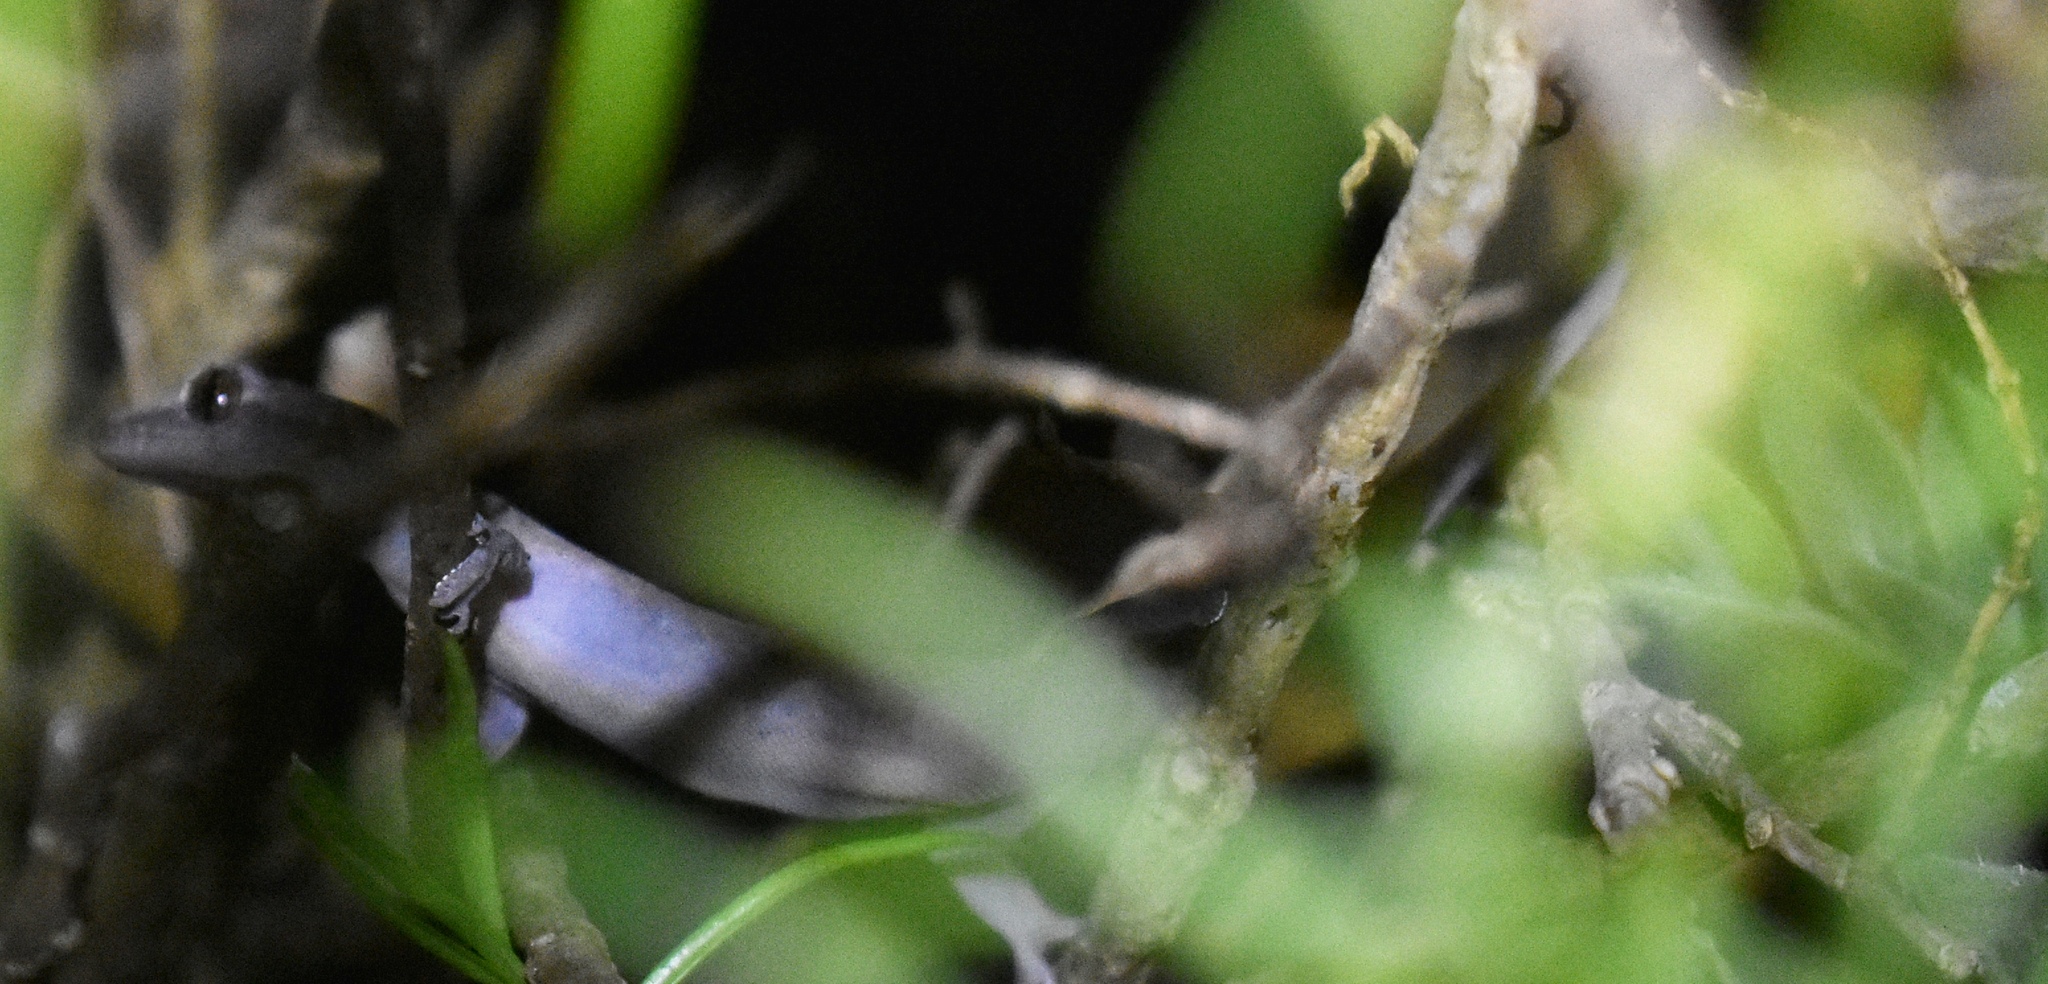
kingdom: Animalia
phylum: Chordata
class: Squamata
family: Gekkonidae
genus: Lepidodactylus
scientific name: Lepidodactylus lugubris
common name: Mourning gecko
